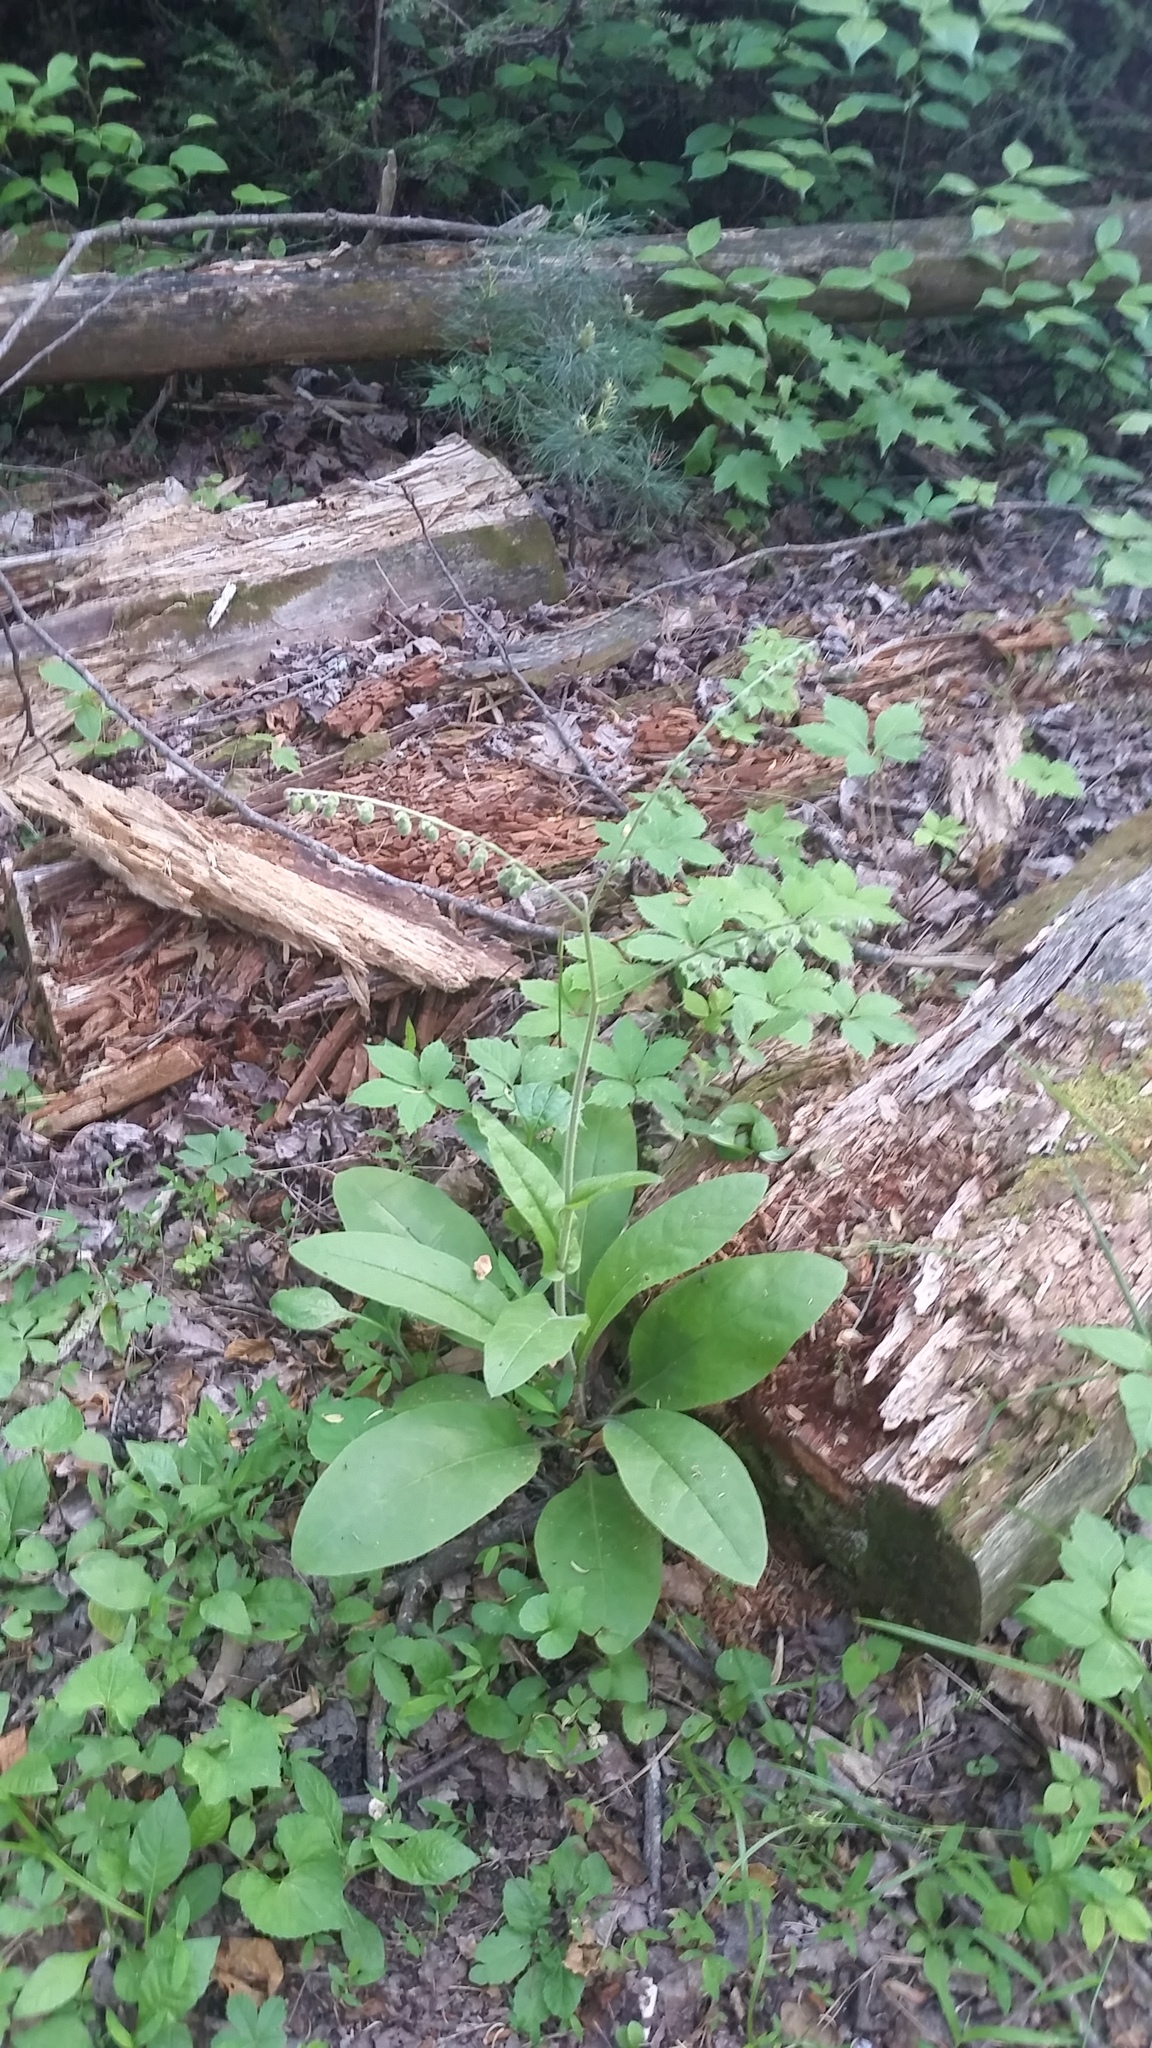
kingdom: Plantae
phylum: Tracheophyta
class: Magnoliopsida
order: Boraginales
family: Boraginaceae
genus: Andersonglossum
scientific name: Andersonglossum virginianum
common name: Wild comfrey
